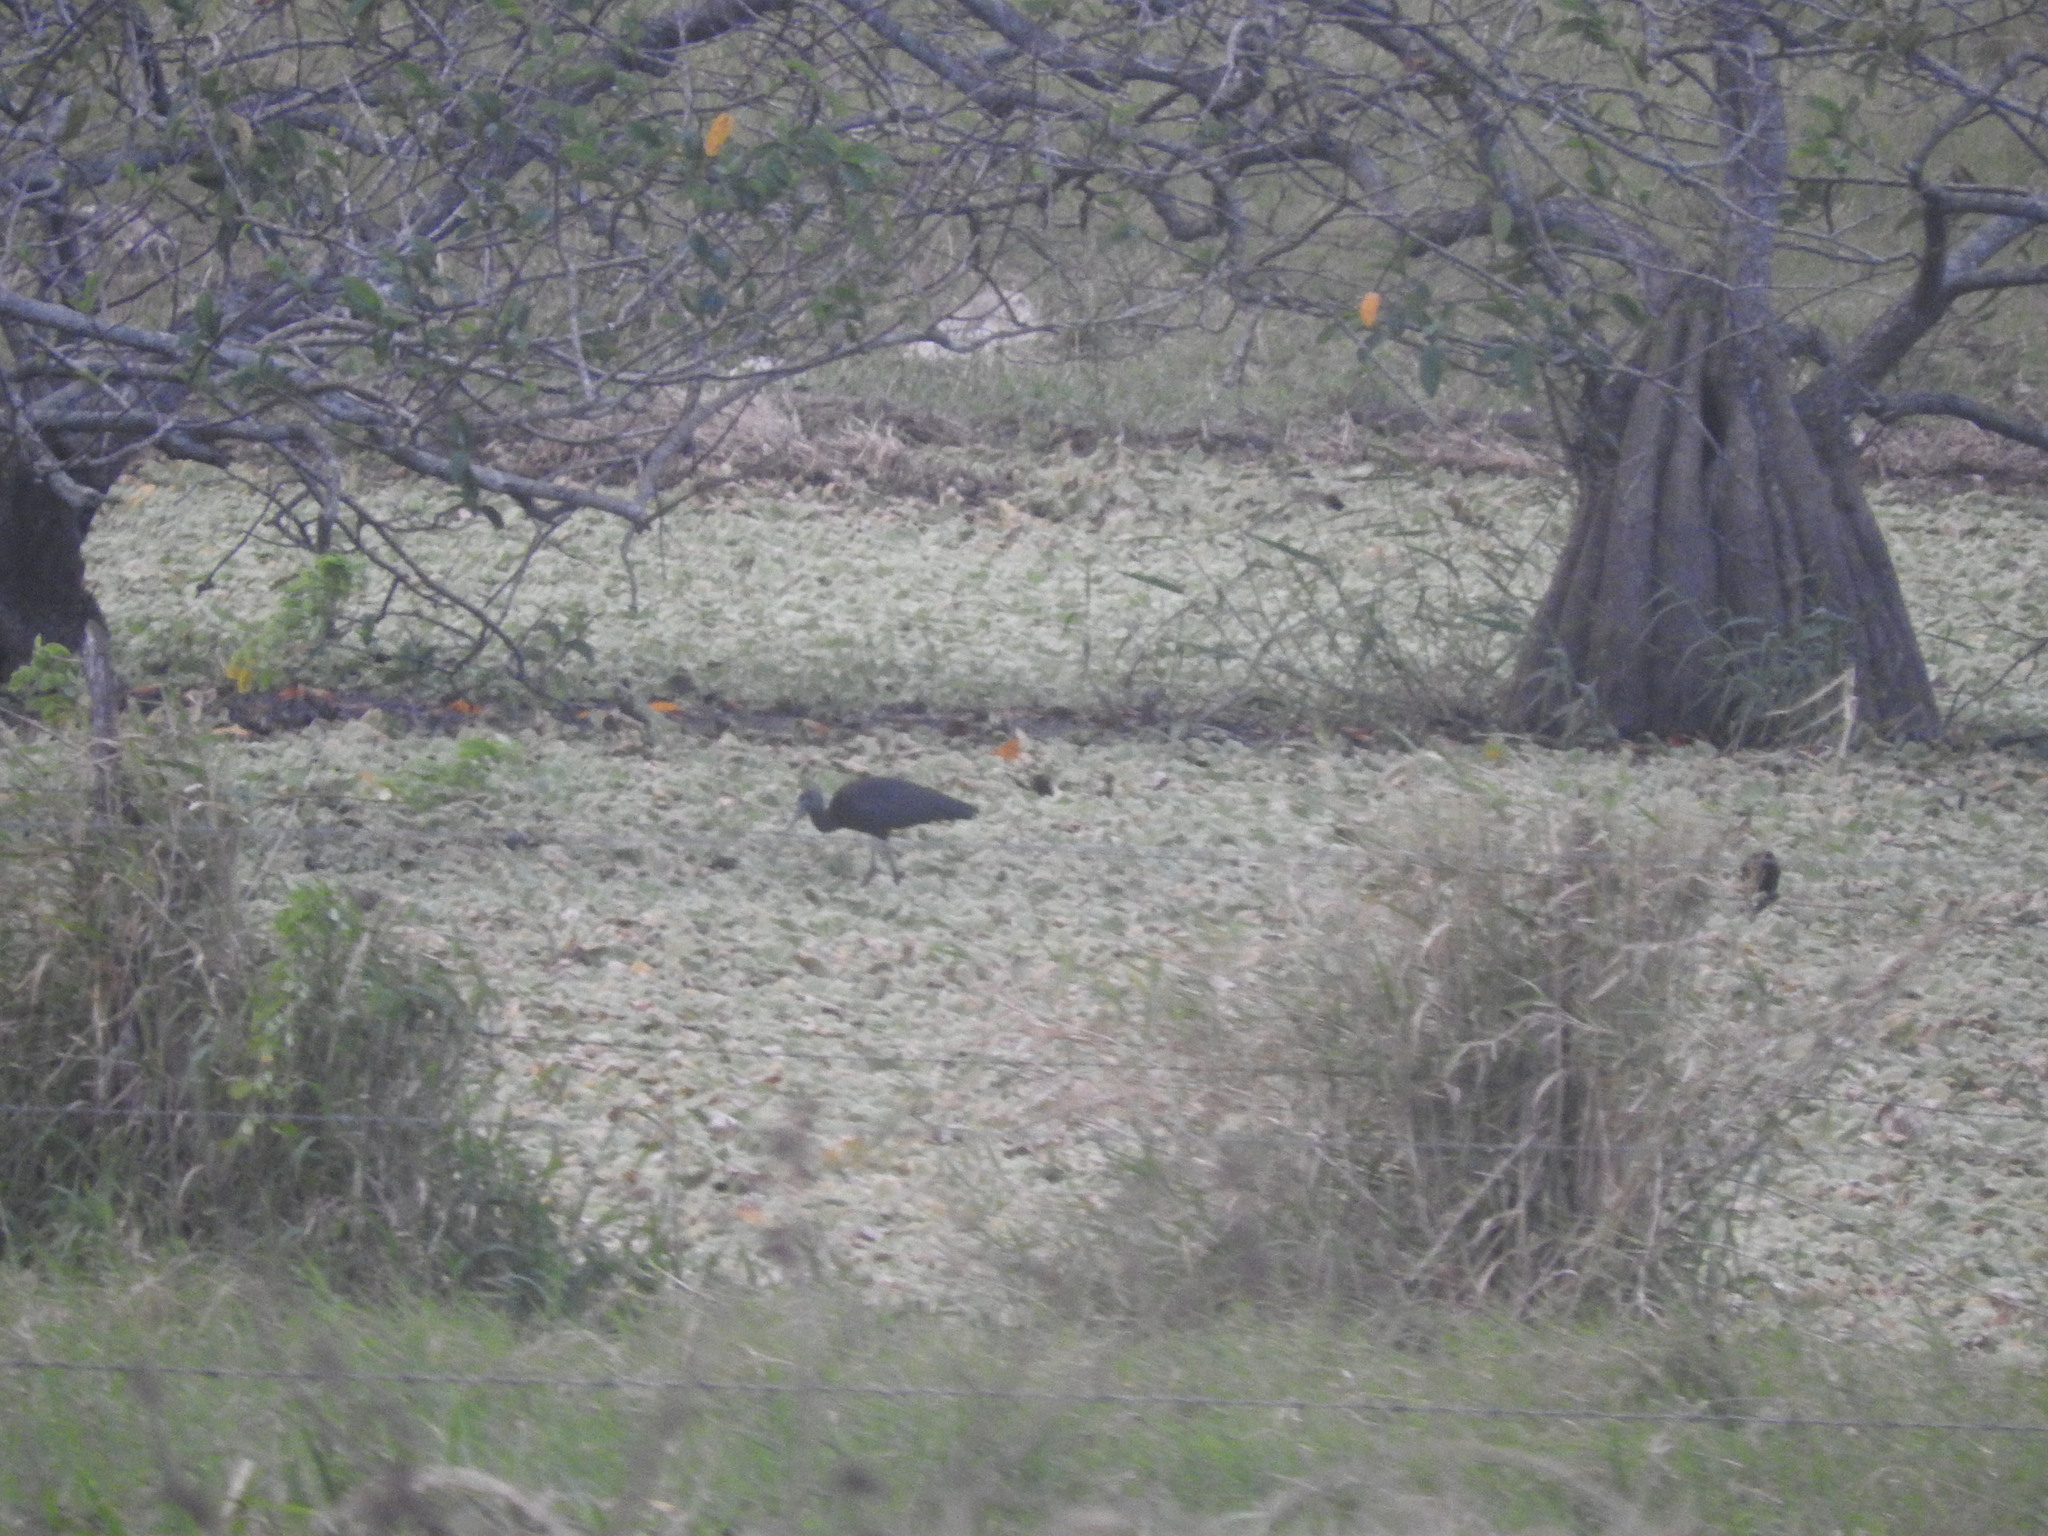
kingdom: Animalia
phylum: Chordata
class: Aves
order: Pelecaniformes
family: Threskiornithidae
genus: Plegadis
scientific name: Plegadis falcinellus
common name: Glossy ibis
